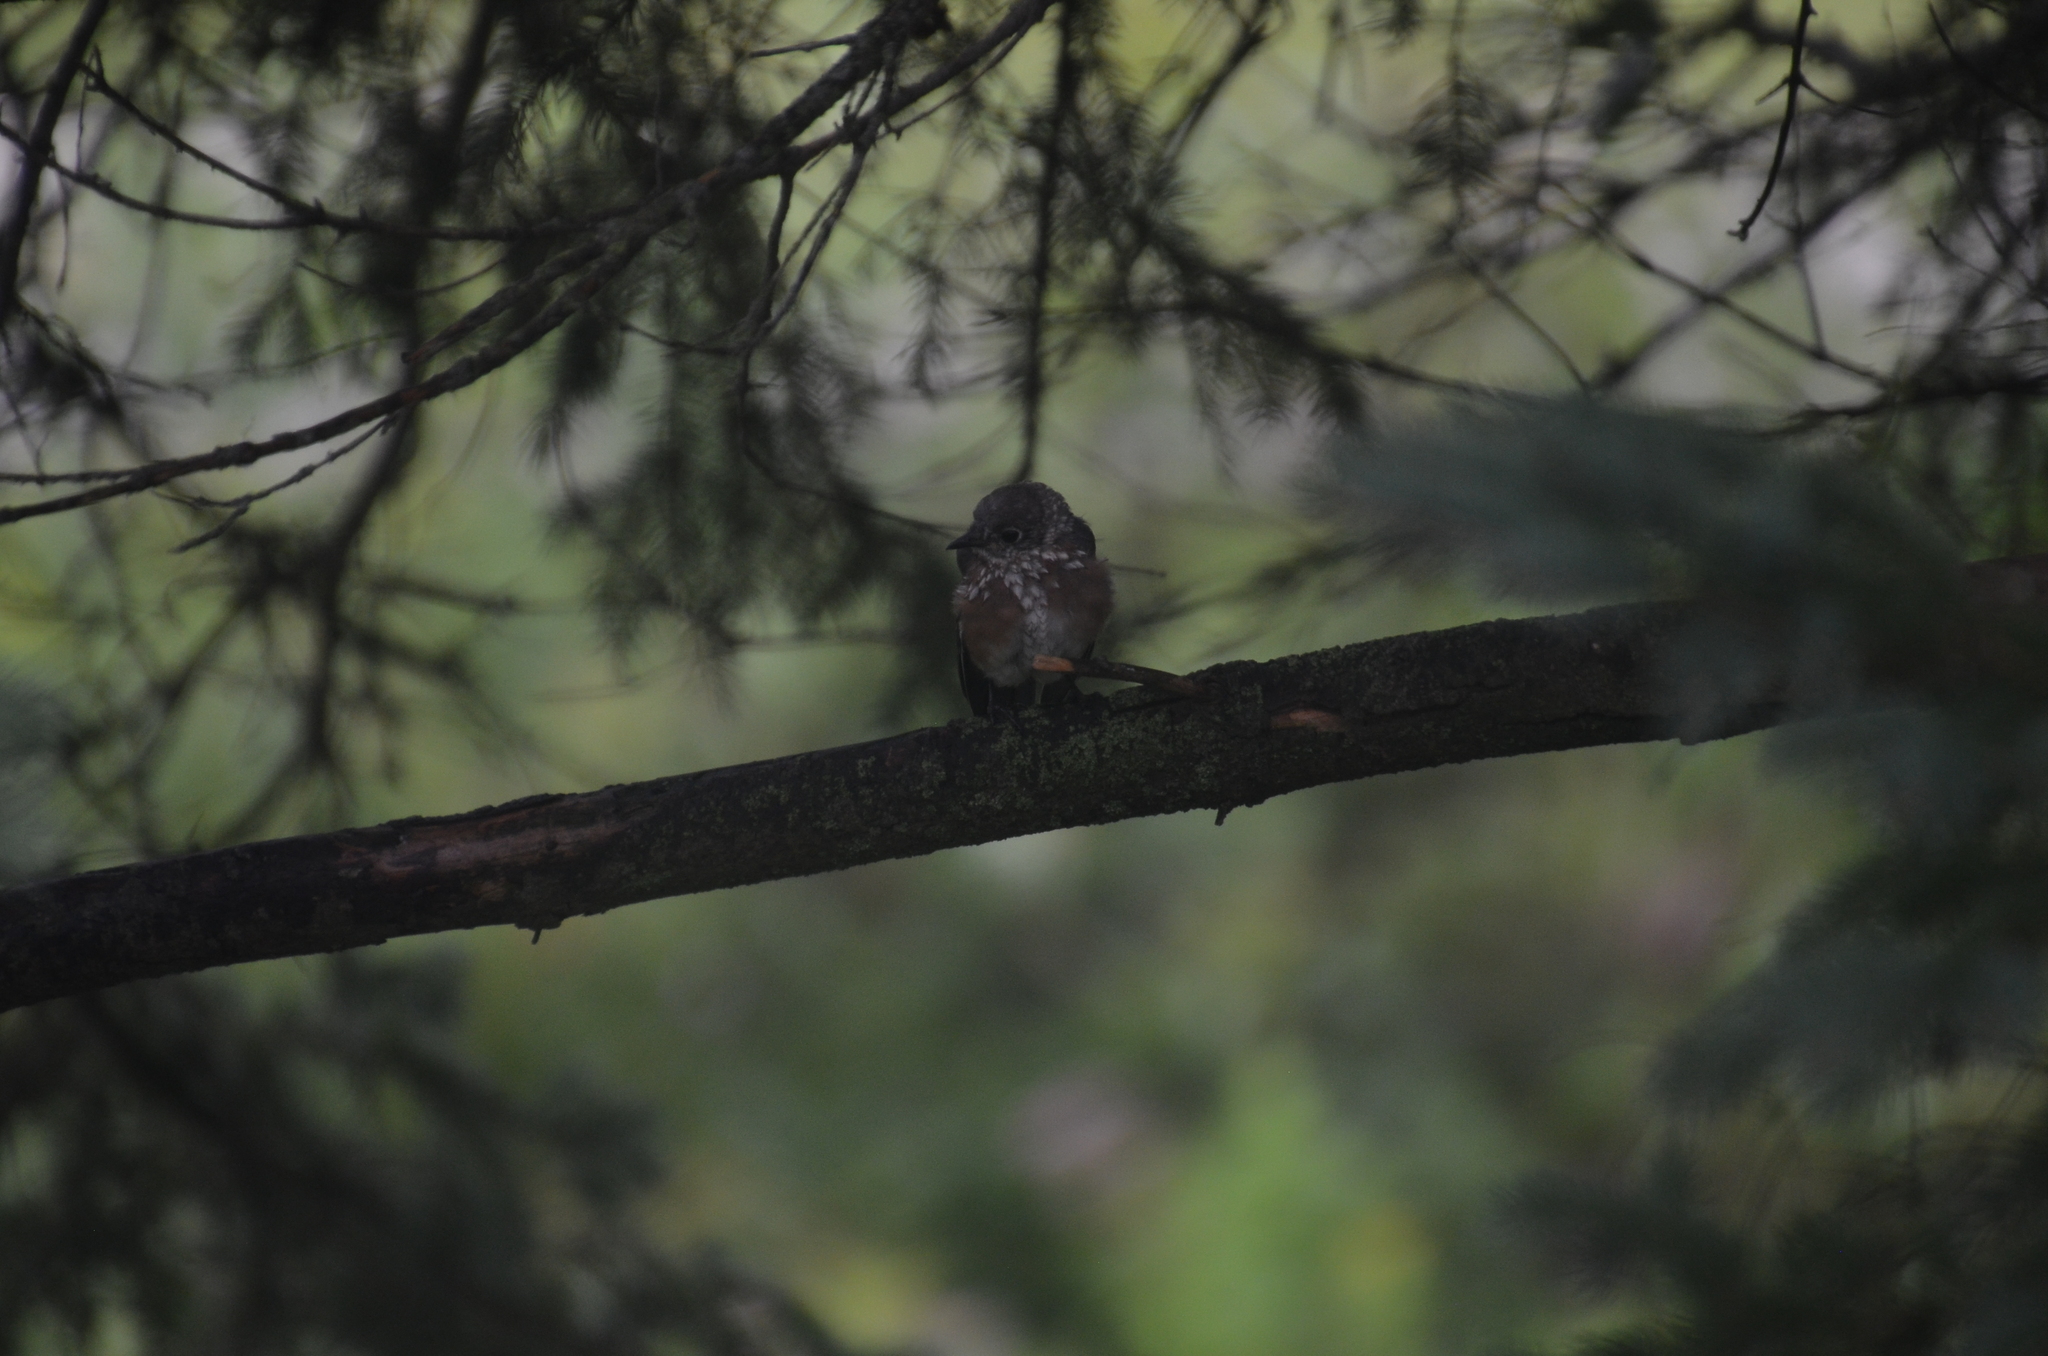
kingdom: Animalia
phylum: Chordata
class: Aves
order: Passeriformes
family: Turdidae
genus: Sialia
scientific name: Sialia sialis
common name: Eastern bluebird
